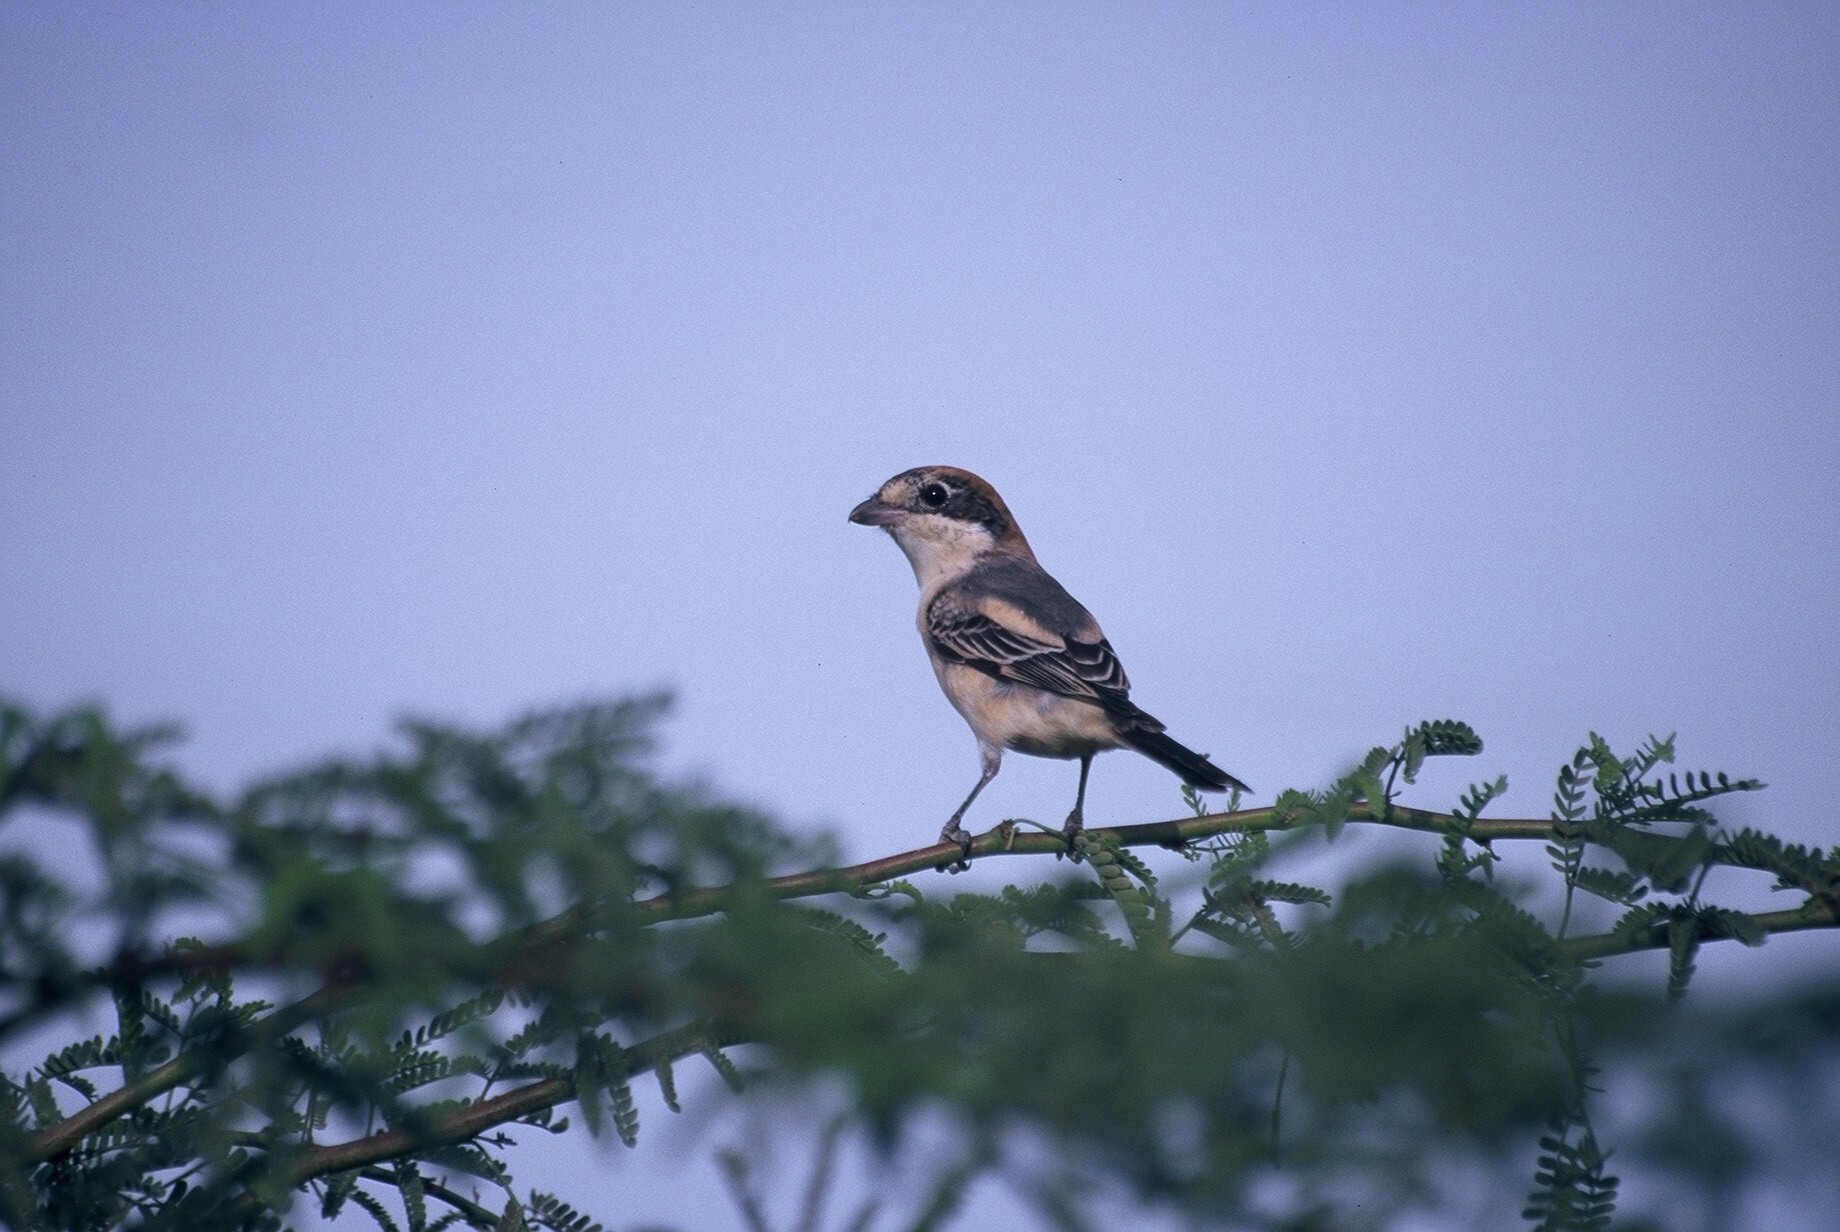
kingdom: Animalia
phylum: Chordata
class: Aves
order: Passeriformes
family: Laniidae
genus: Lanius
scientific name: Lanius senator
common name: Woodchat shrike
